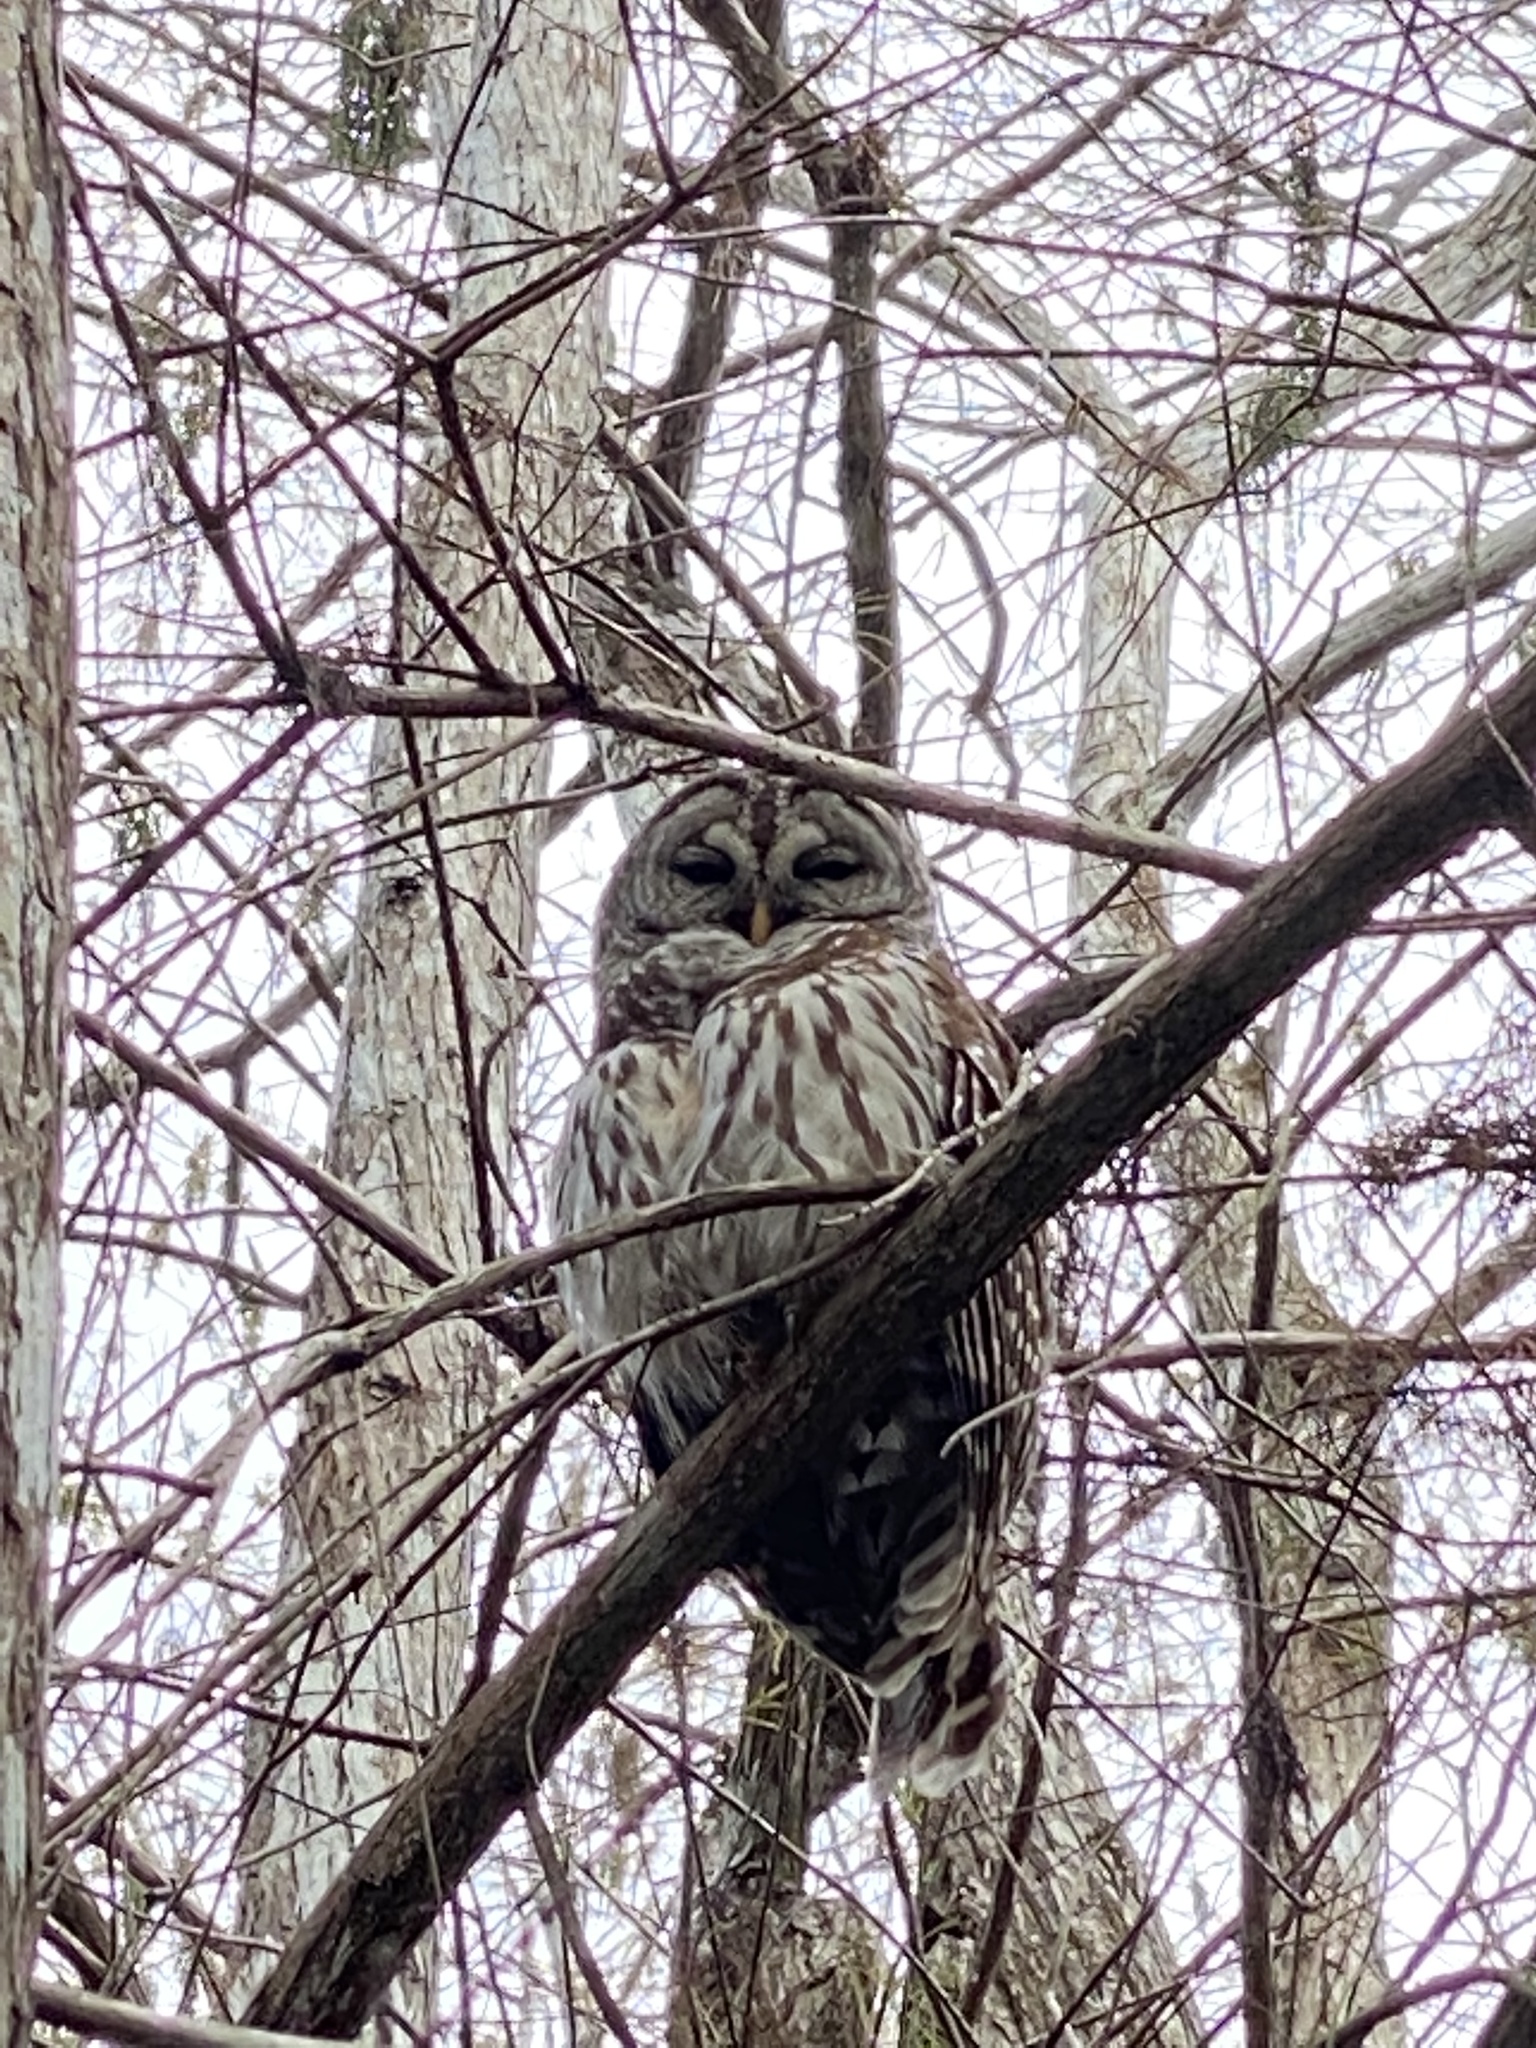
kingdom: Animalia
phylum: Chordata
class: Aves
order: Strigiformes
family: Strigidae
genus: Strix
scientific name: Strix varia
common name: Barred owl
